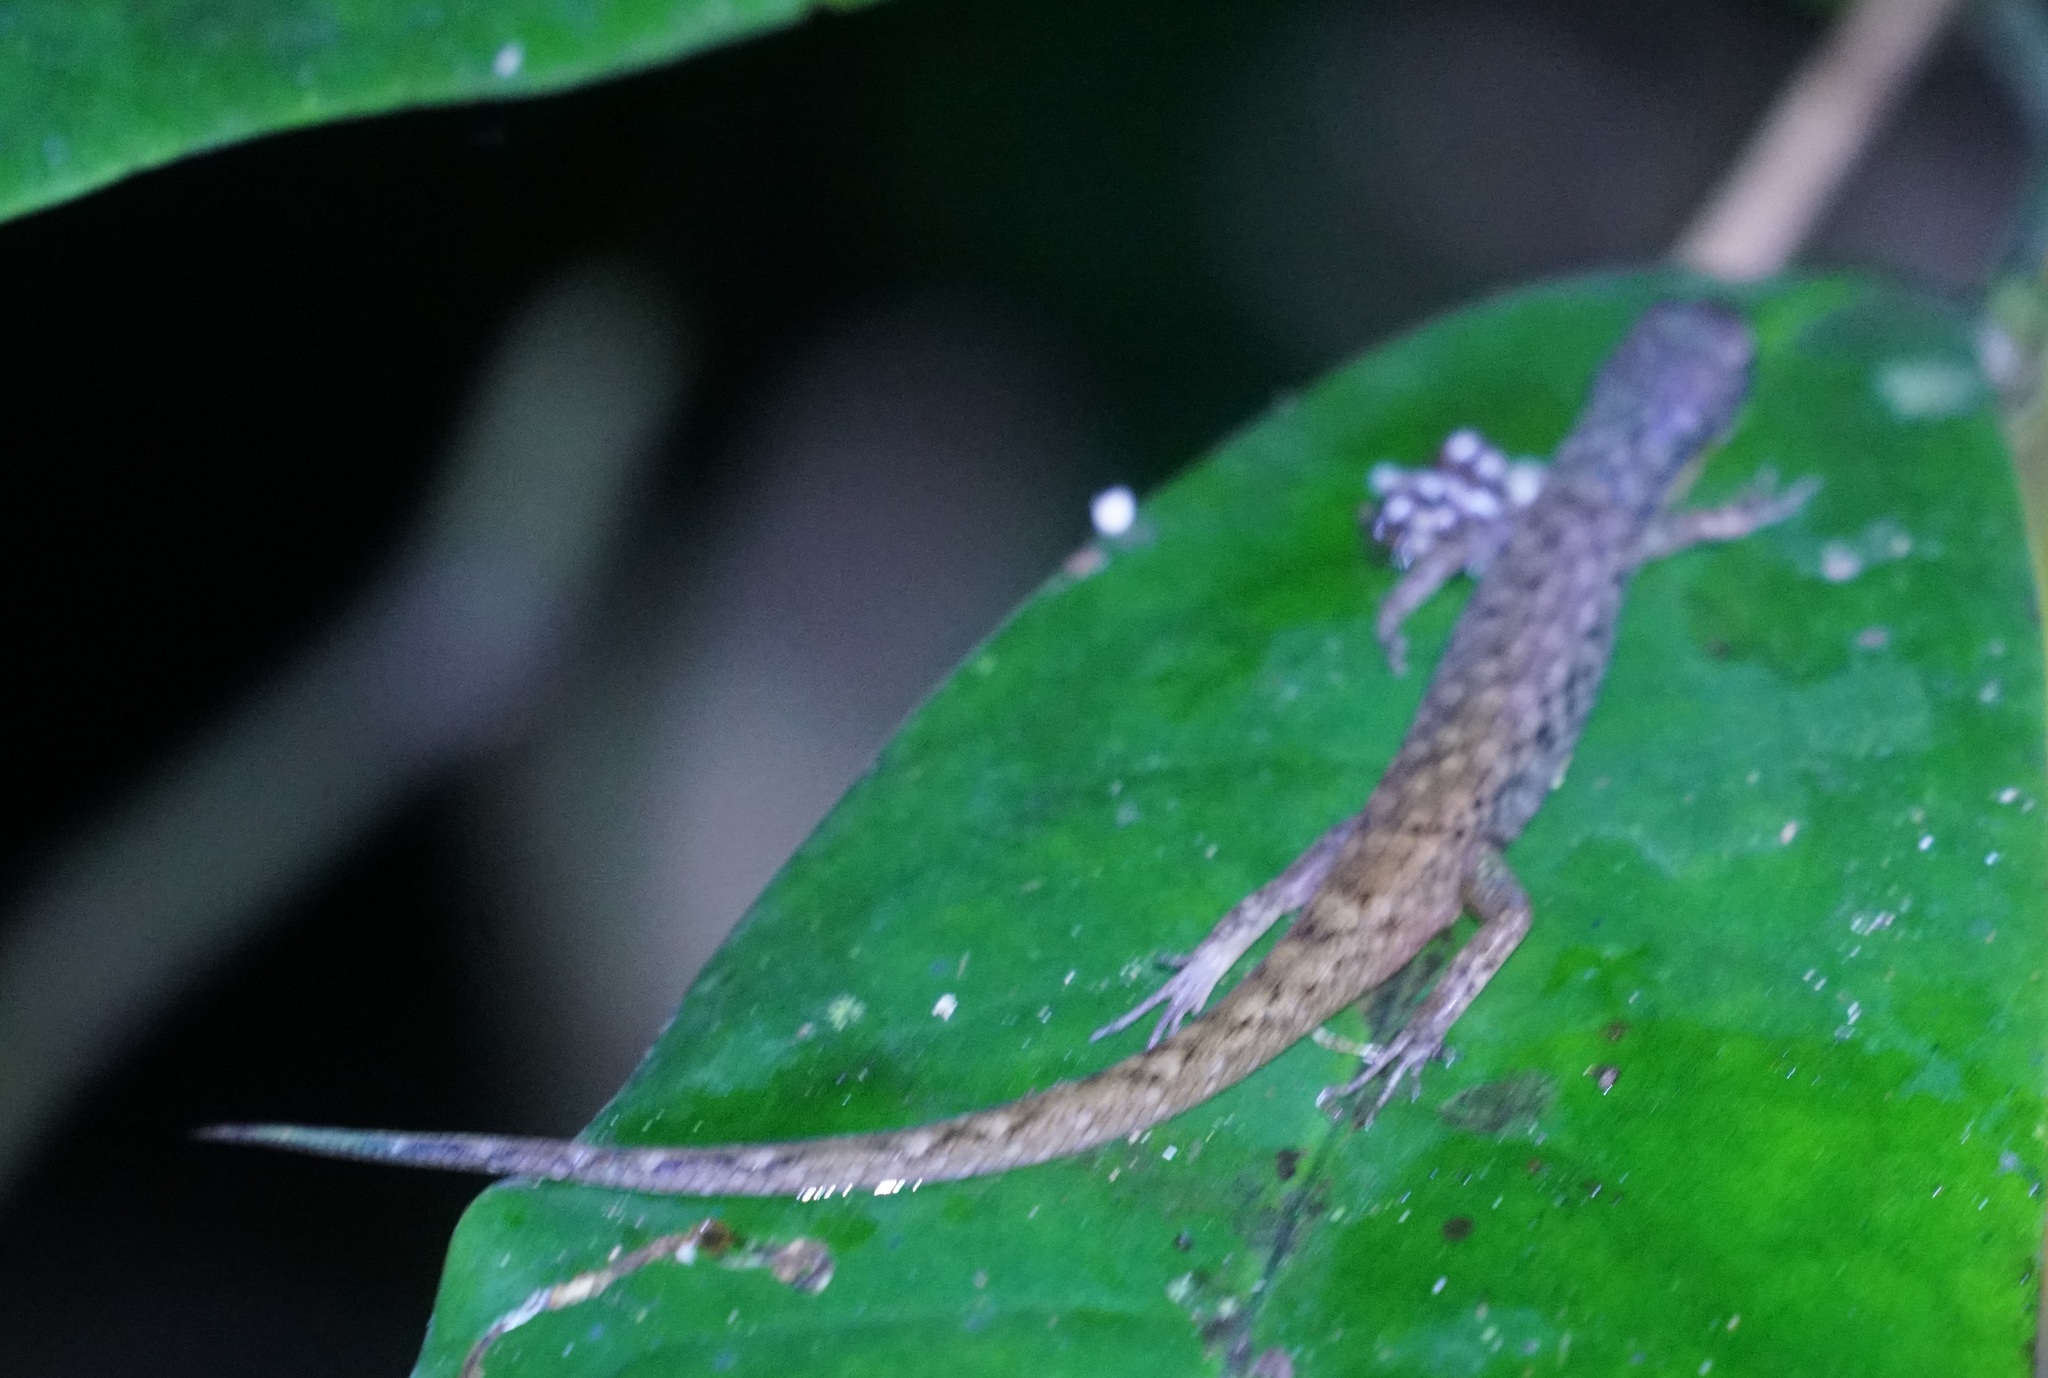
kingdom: Animalia
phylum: Chordata
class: Squamata
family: Scincidae
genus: Saproscincus
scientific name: Saproscincus basiliscus
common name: Pale-lipped shadeskink
